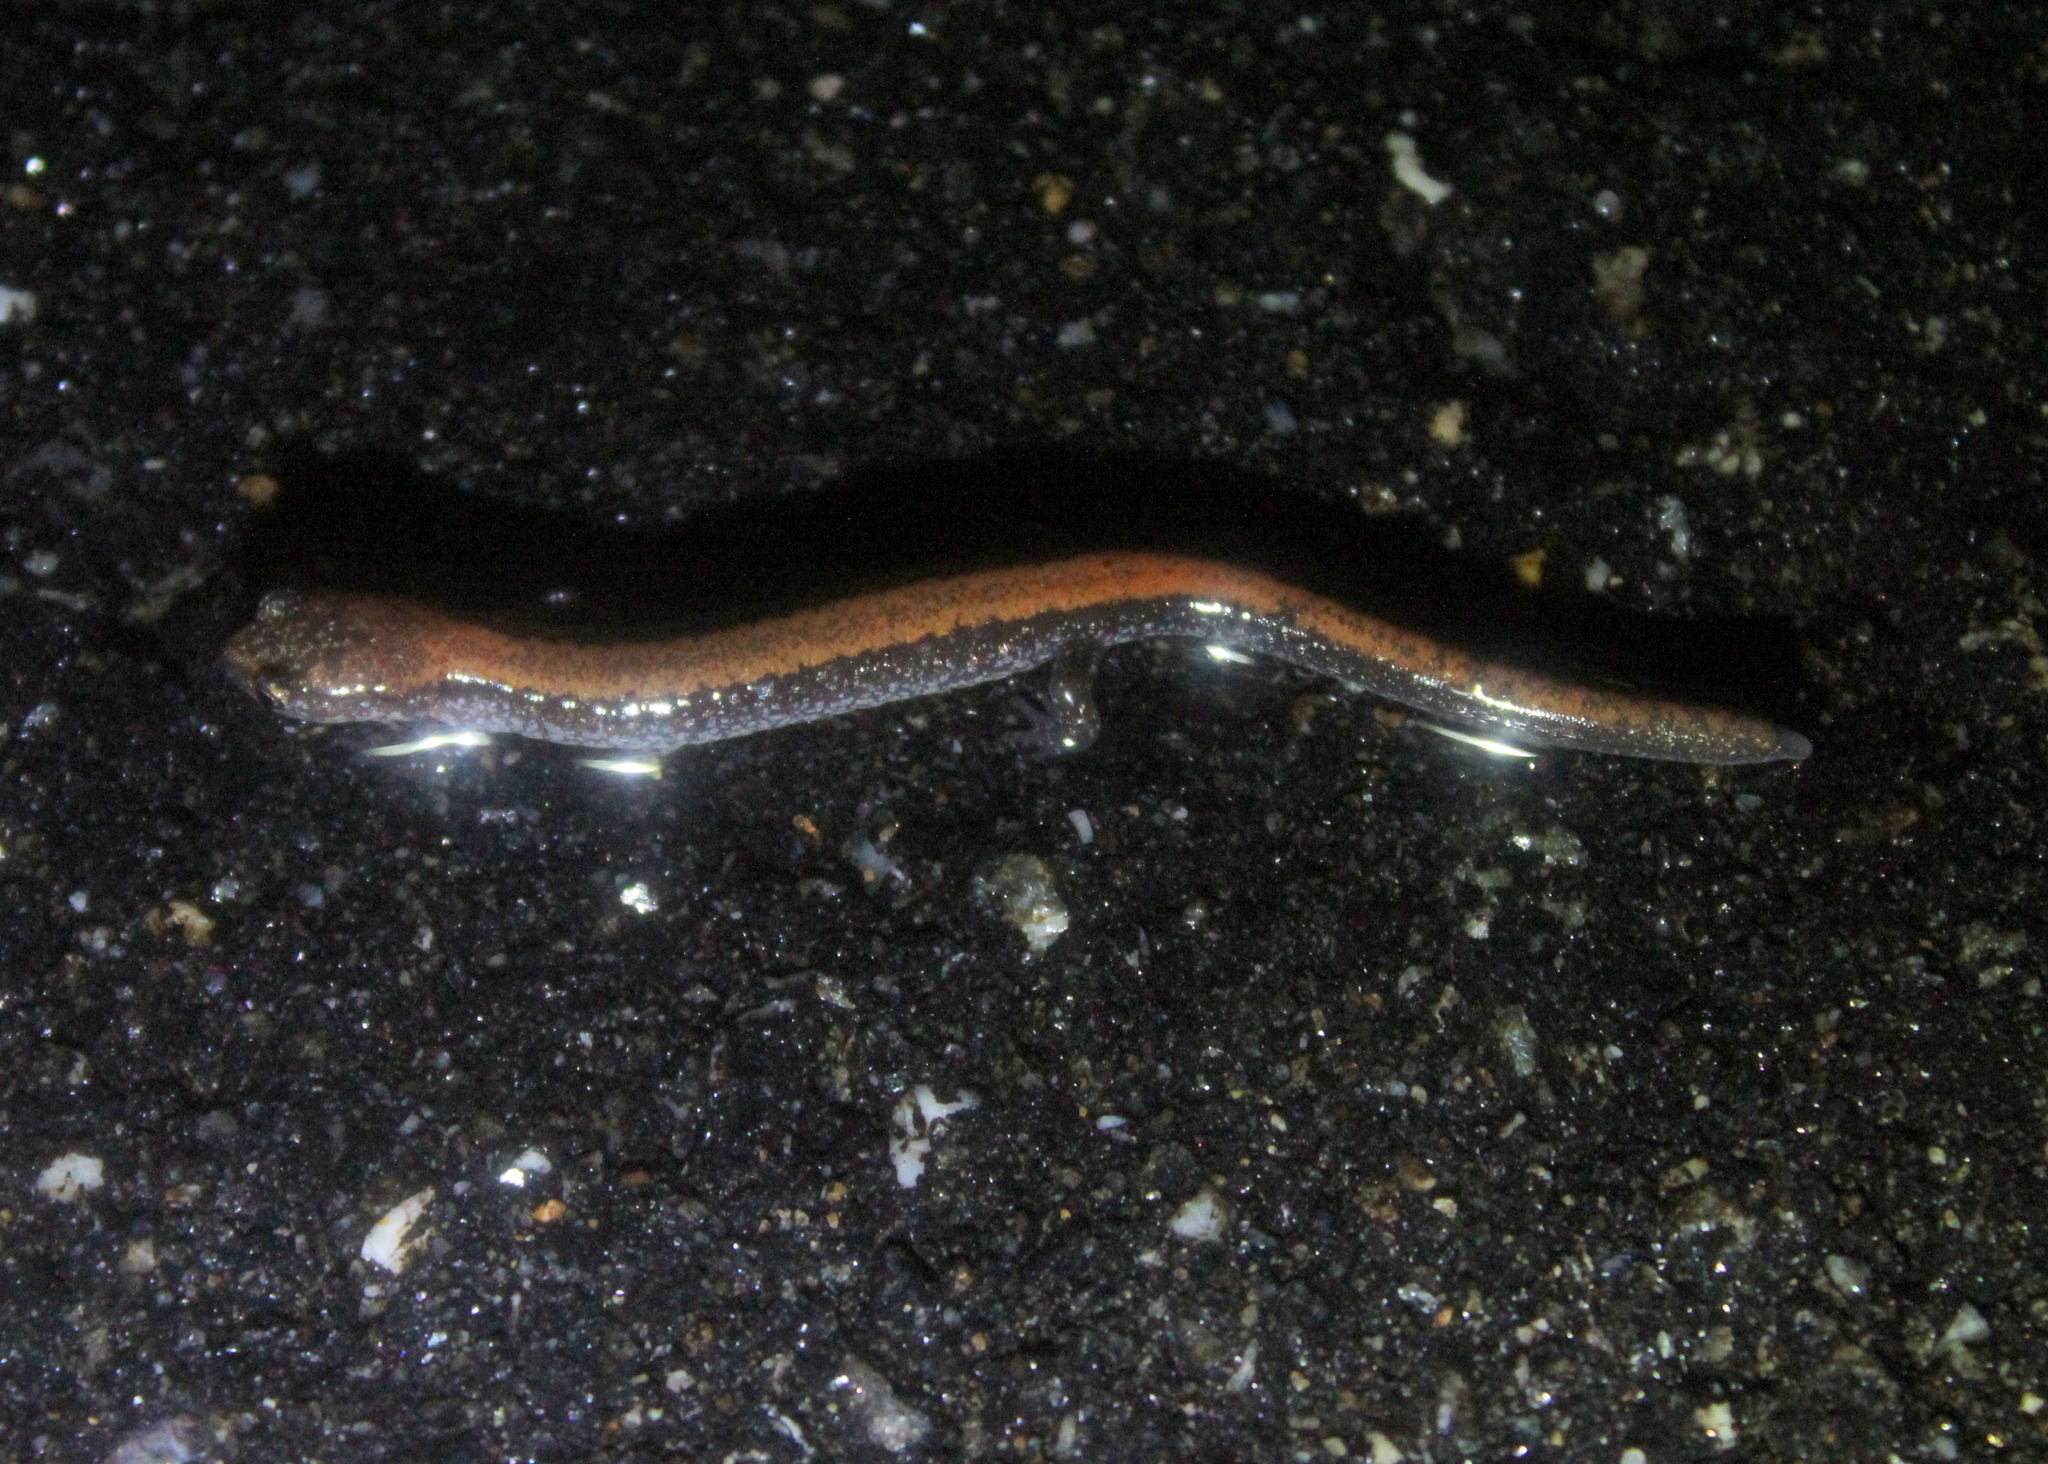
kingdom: Animalia
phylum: Chordata
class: Amphibia
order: Caudata
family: Plethodontidae
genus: Plethodon
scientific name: Plethodon cinereus
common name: Redback salamander
